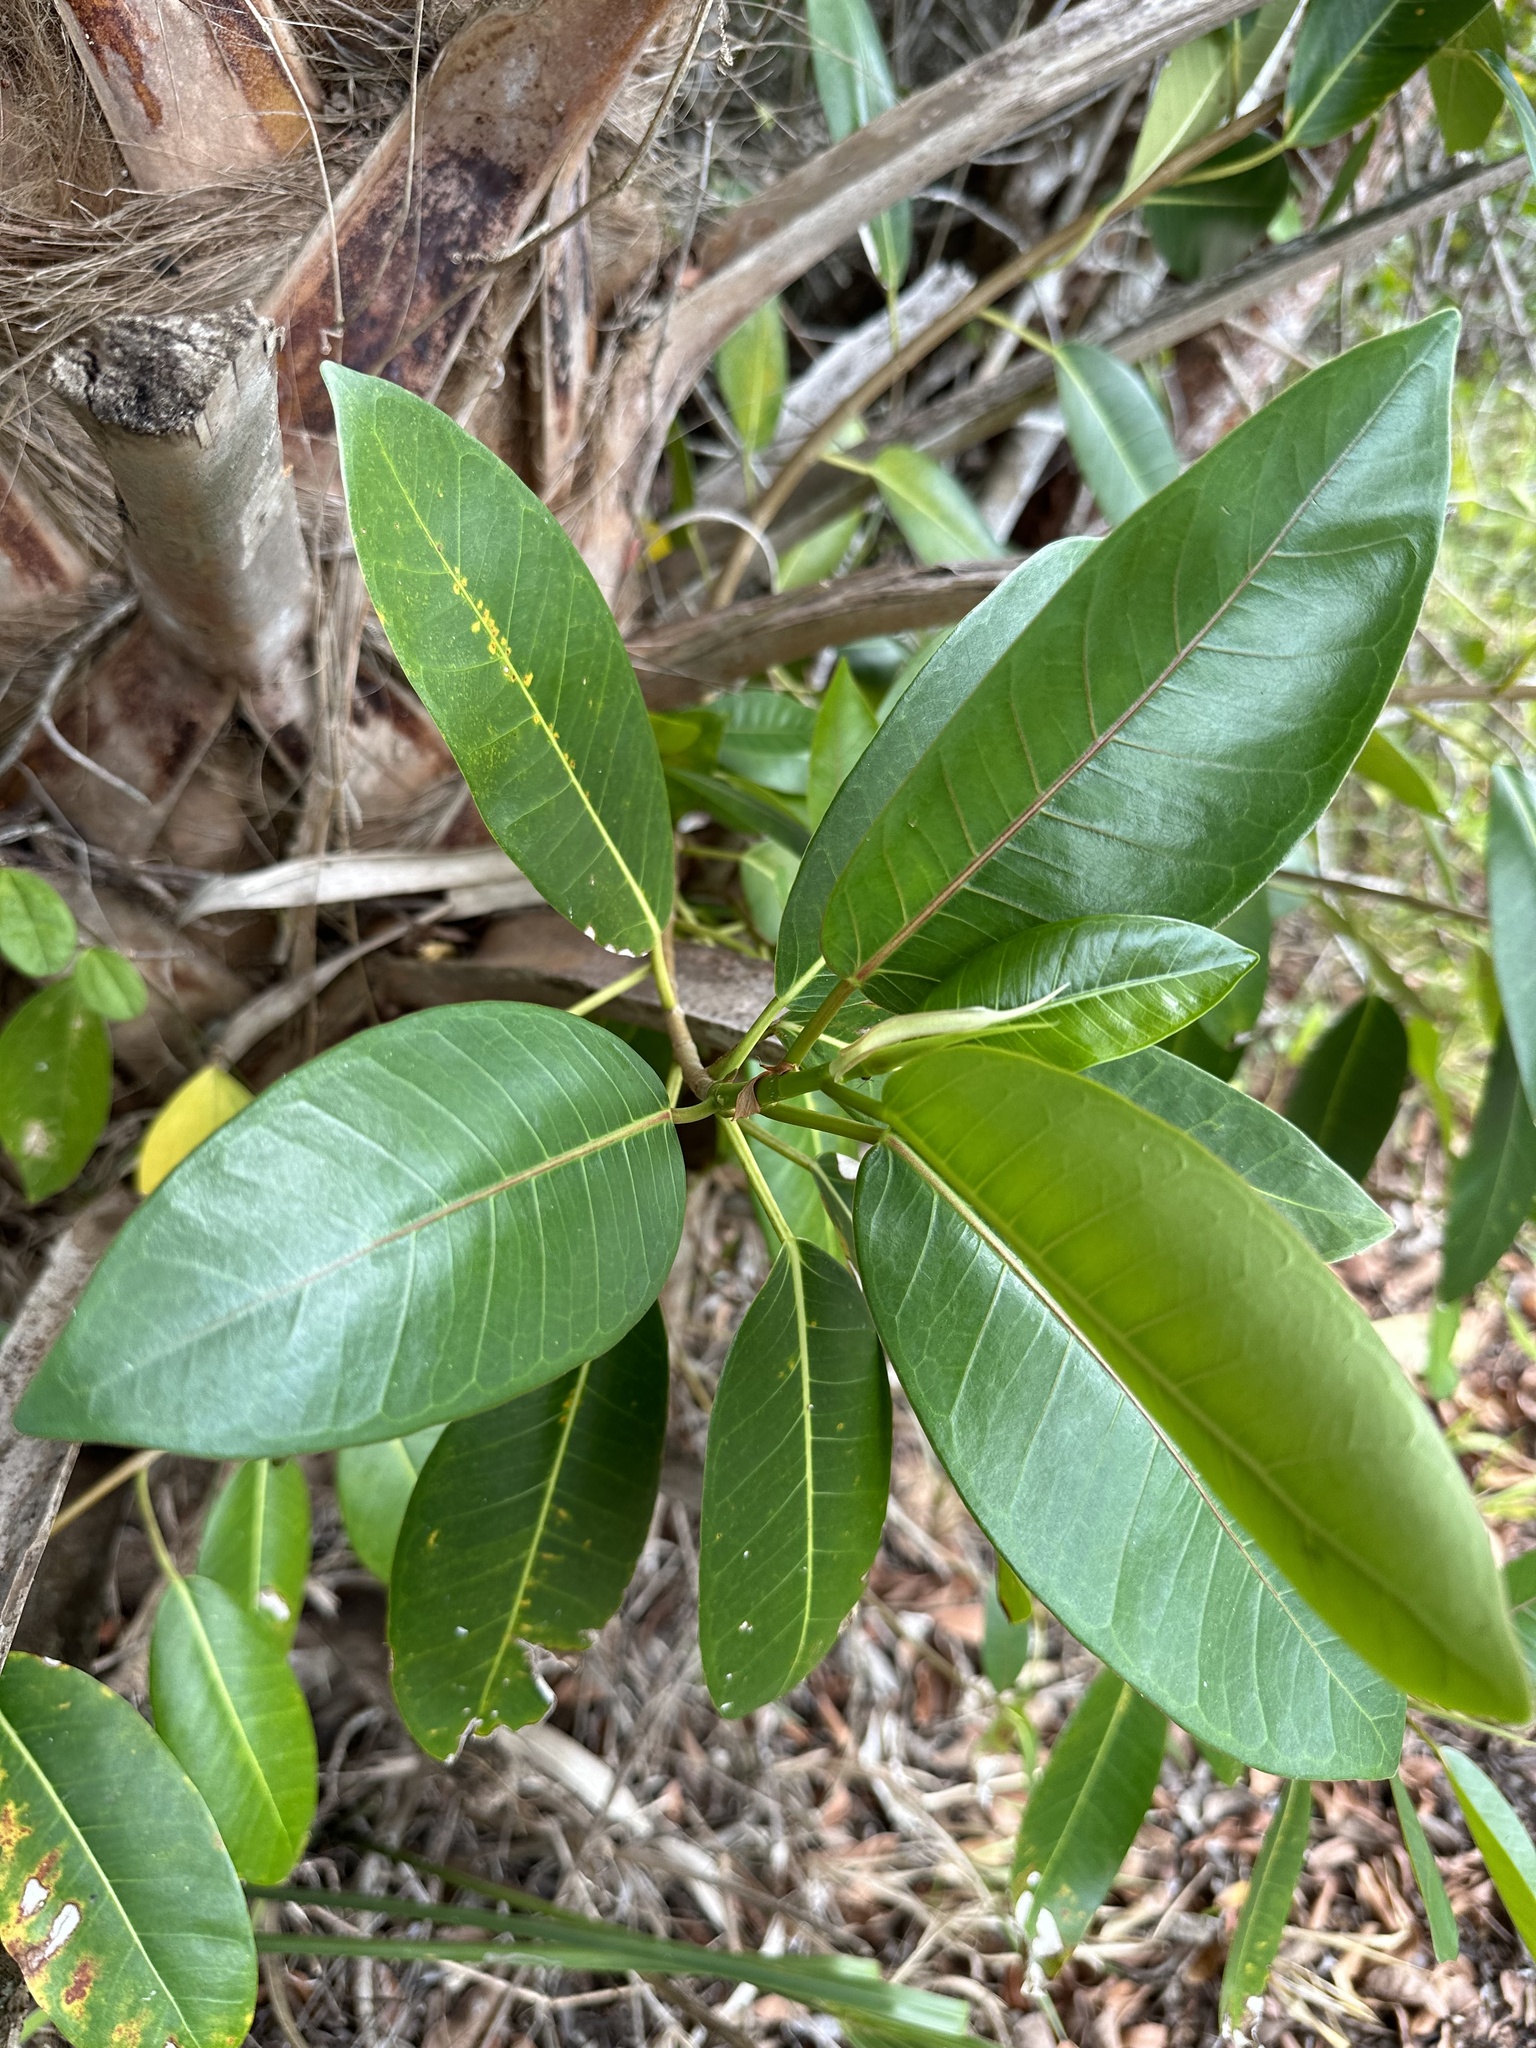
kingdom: Plantae
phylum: Tracheophyta
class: Magnoliopsida
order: Rosales
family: Moraceae
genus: Ficus
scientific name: Ficus aurea
